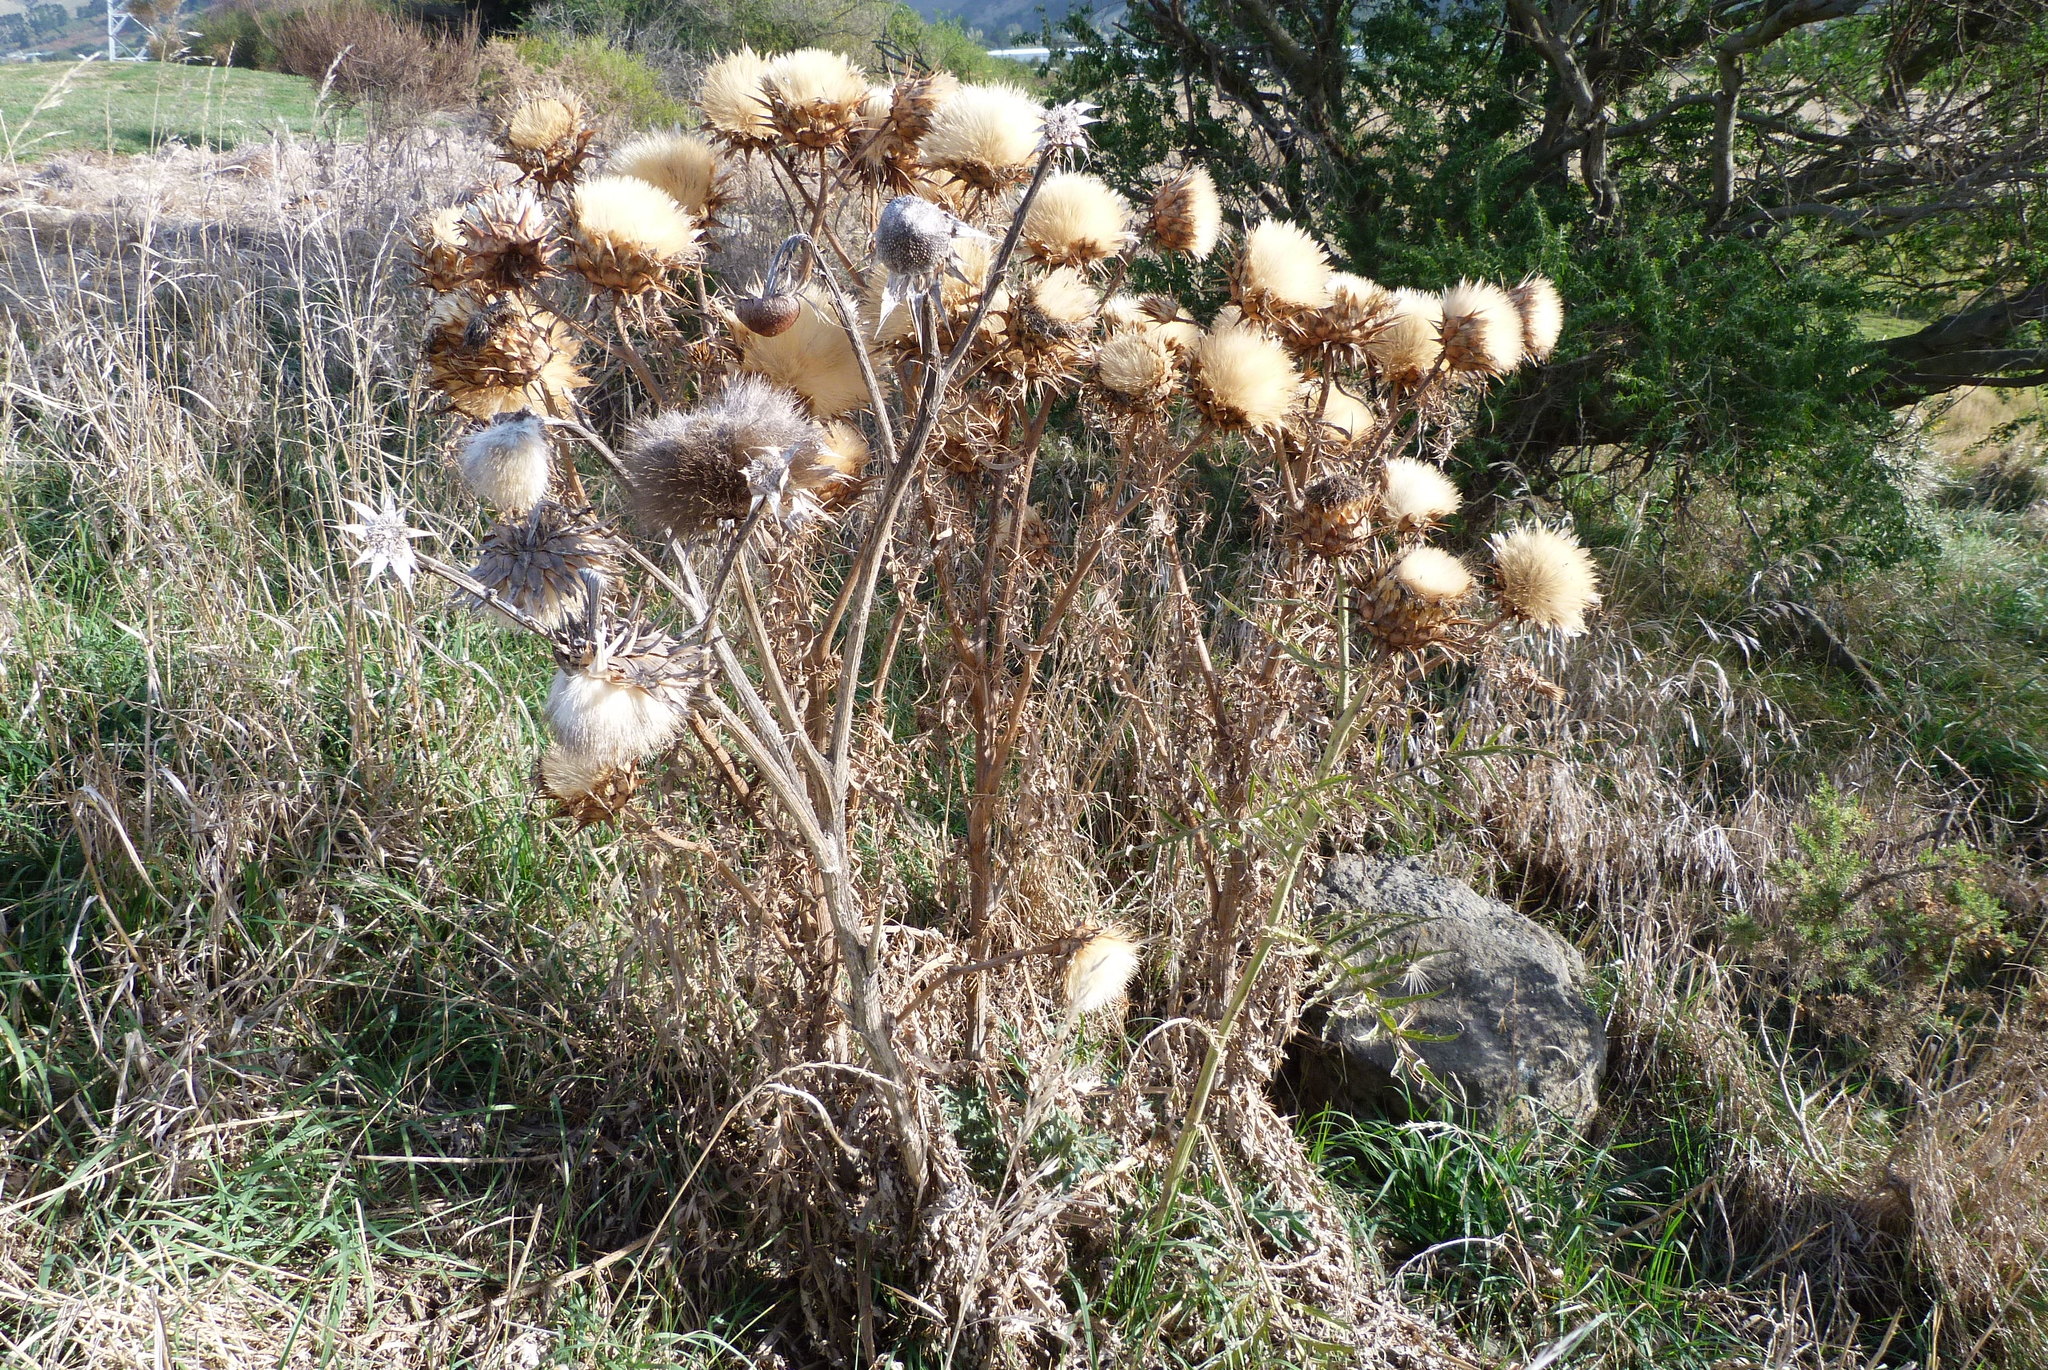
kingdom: Plantae
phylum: Tracheophyta
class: Magnoliopsida
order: Asterales
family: Asteraceae
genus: Silybum
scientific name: Silybum marianum
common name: Milk thistle
